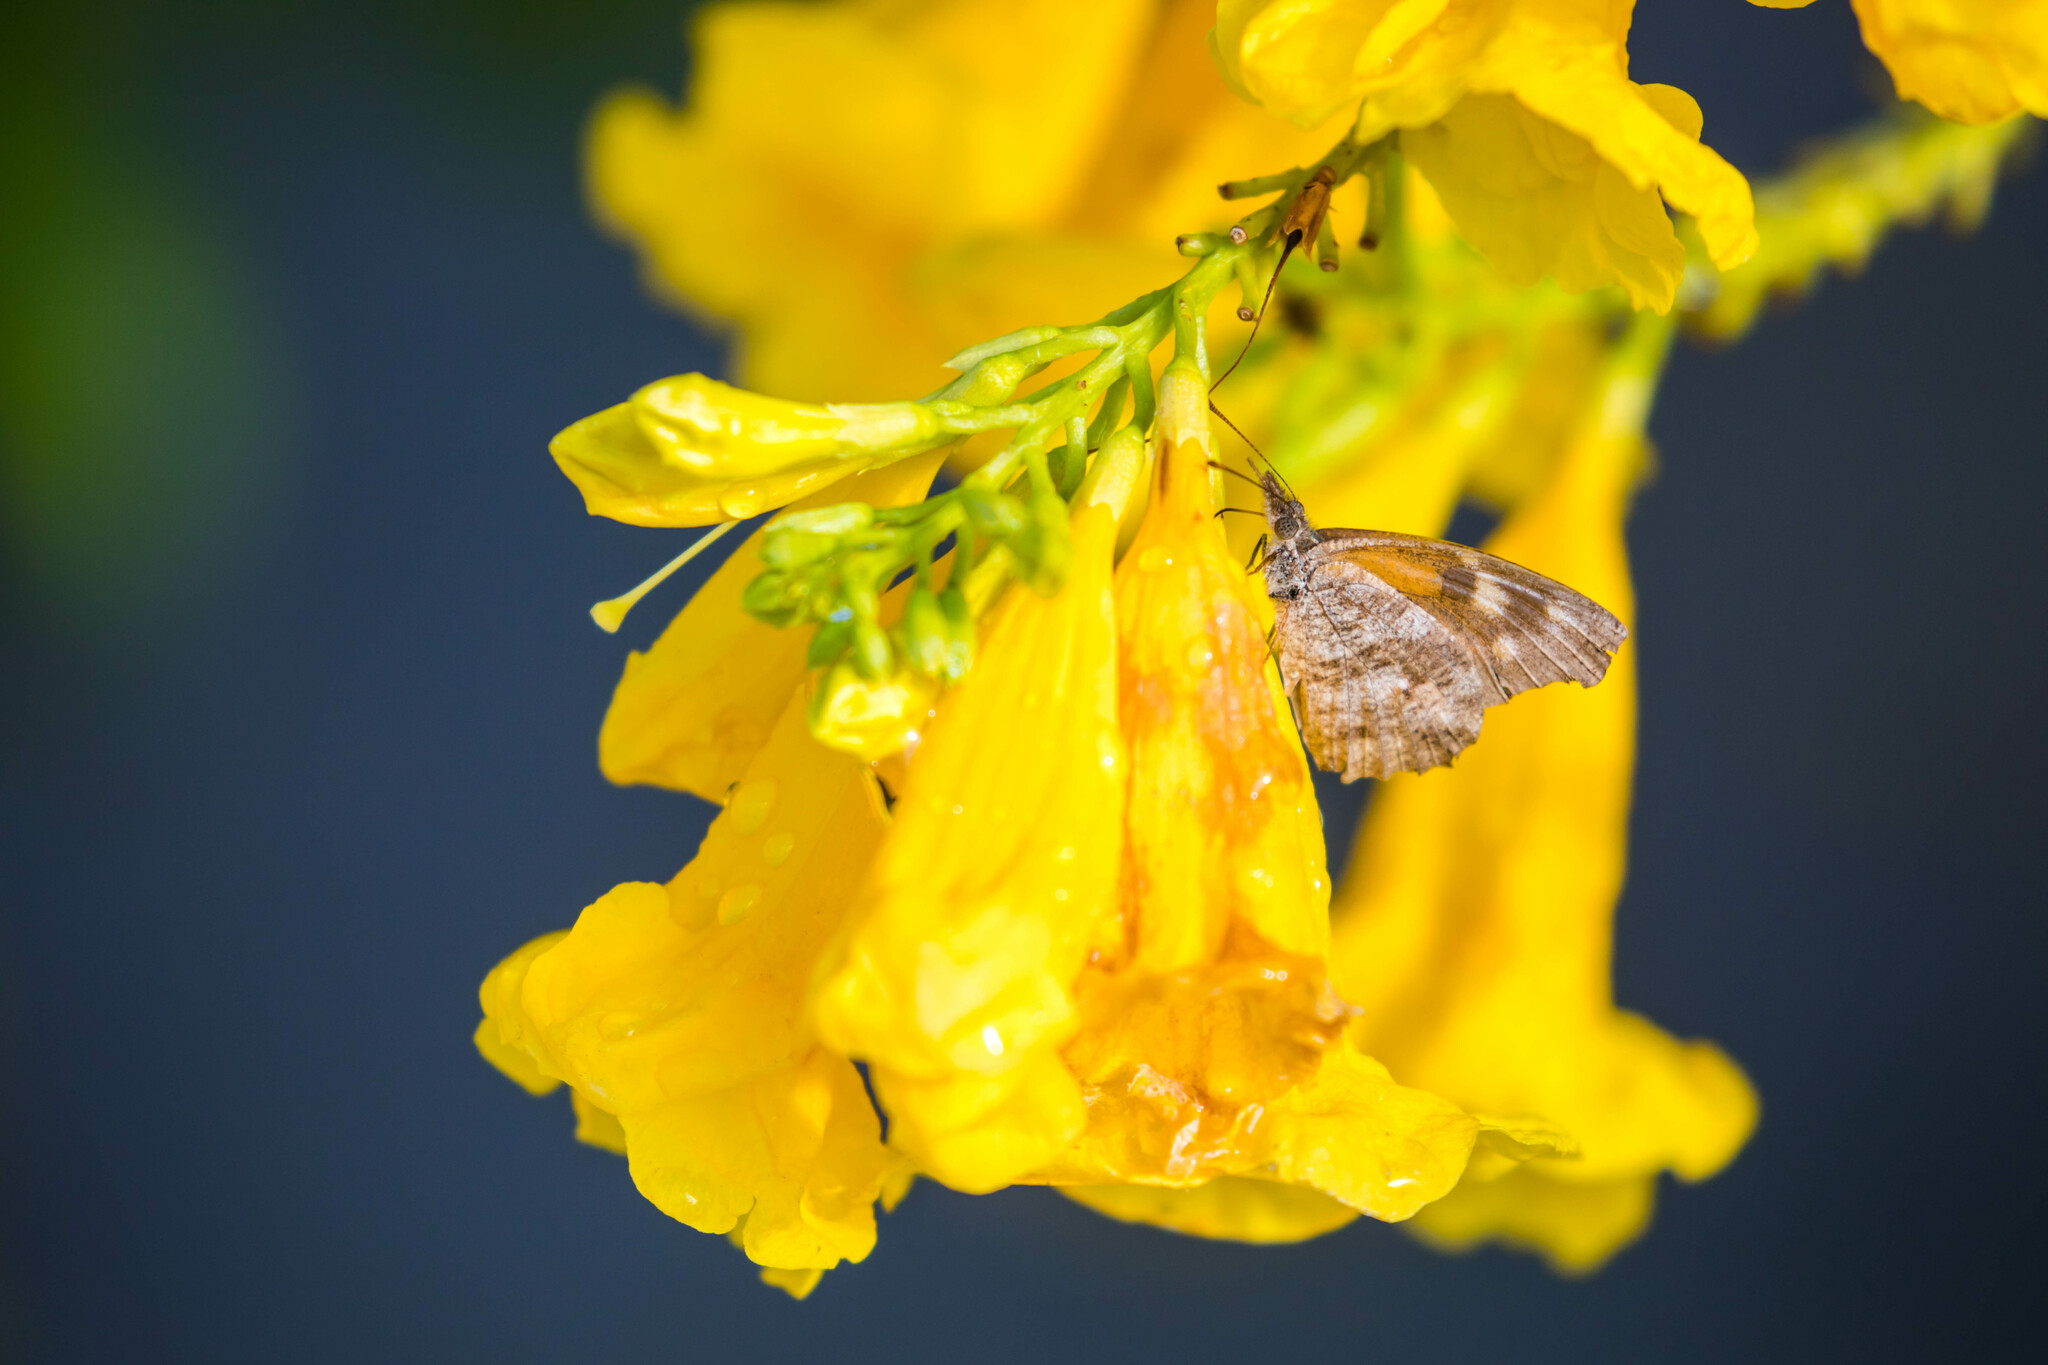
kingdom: Animalia
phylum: Arthropoda
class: Insecta
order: Lepidoptera
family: Nymphalidae
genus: Libytheana
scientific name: Libytheana carinenta
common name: American snout
